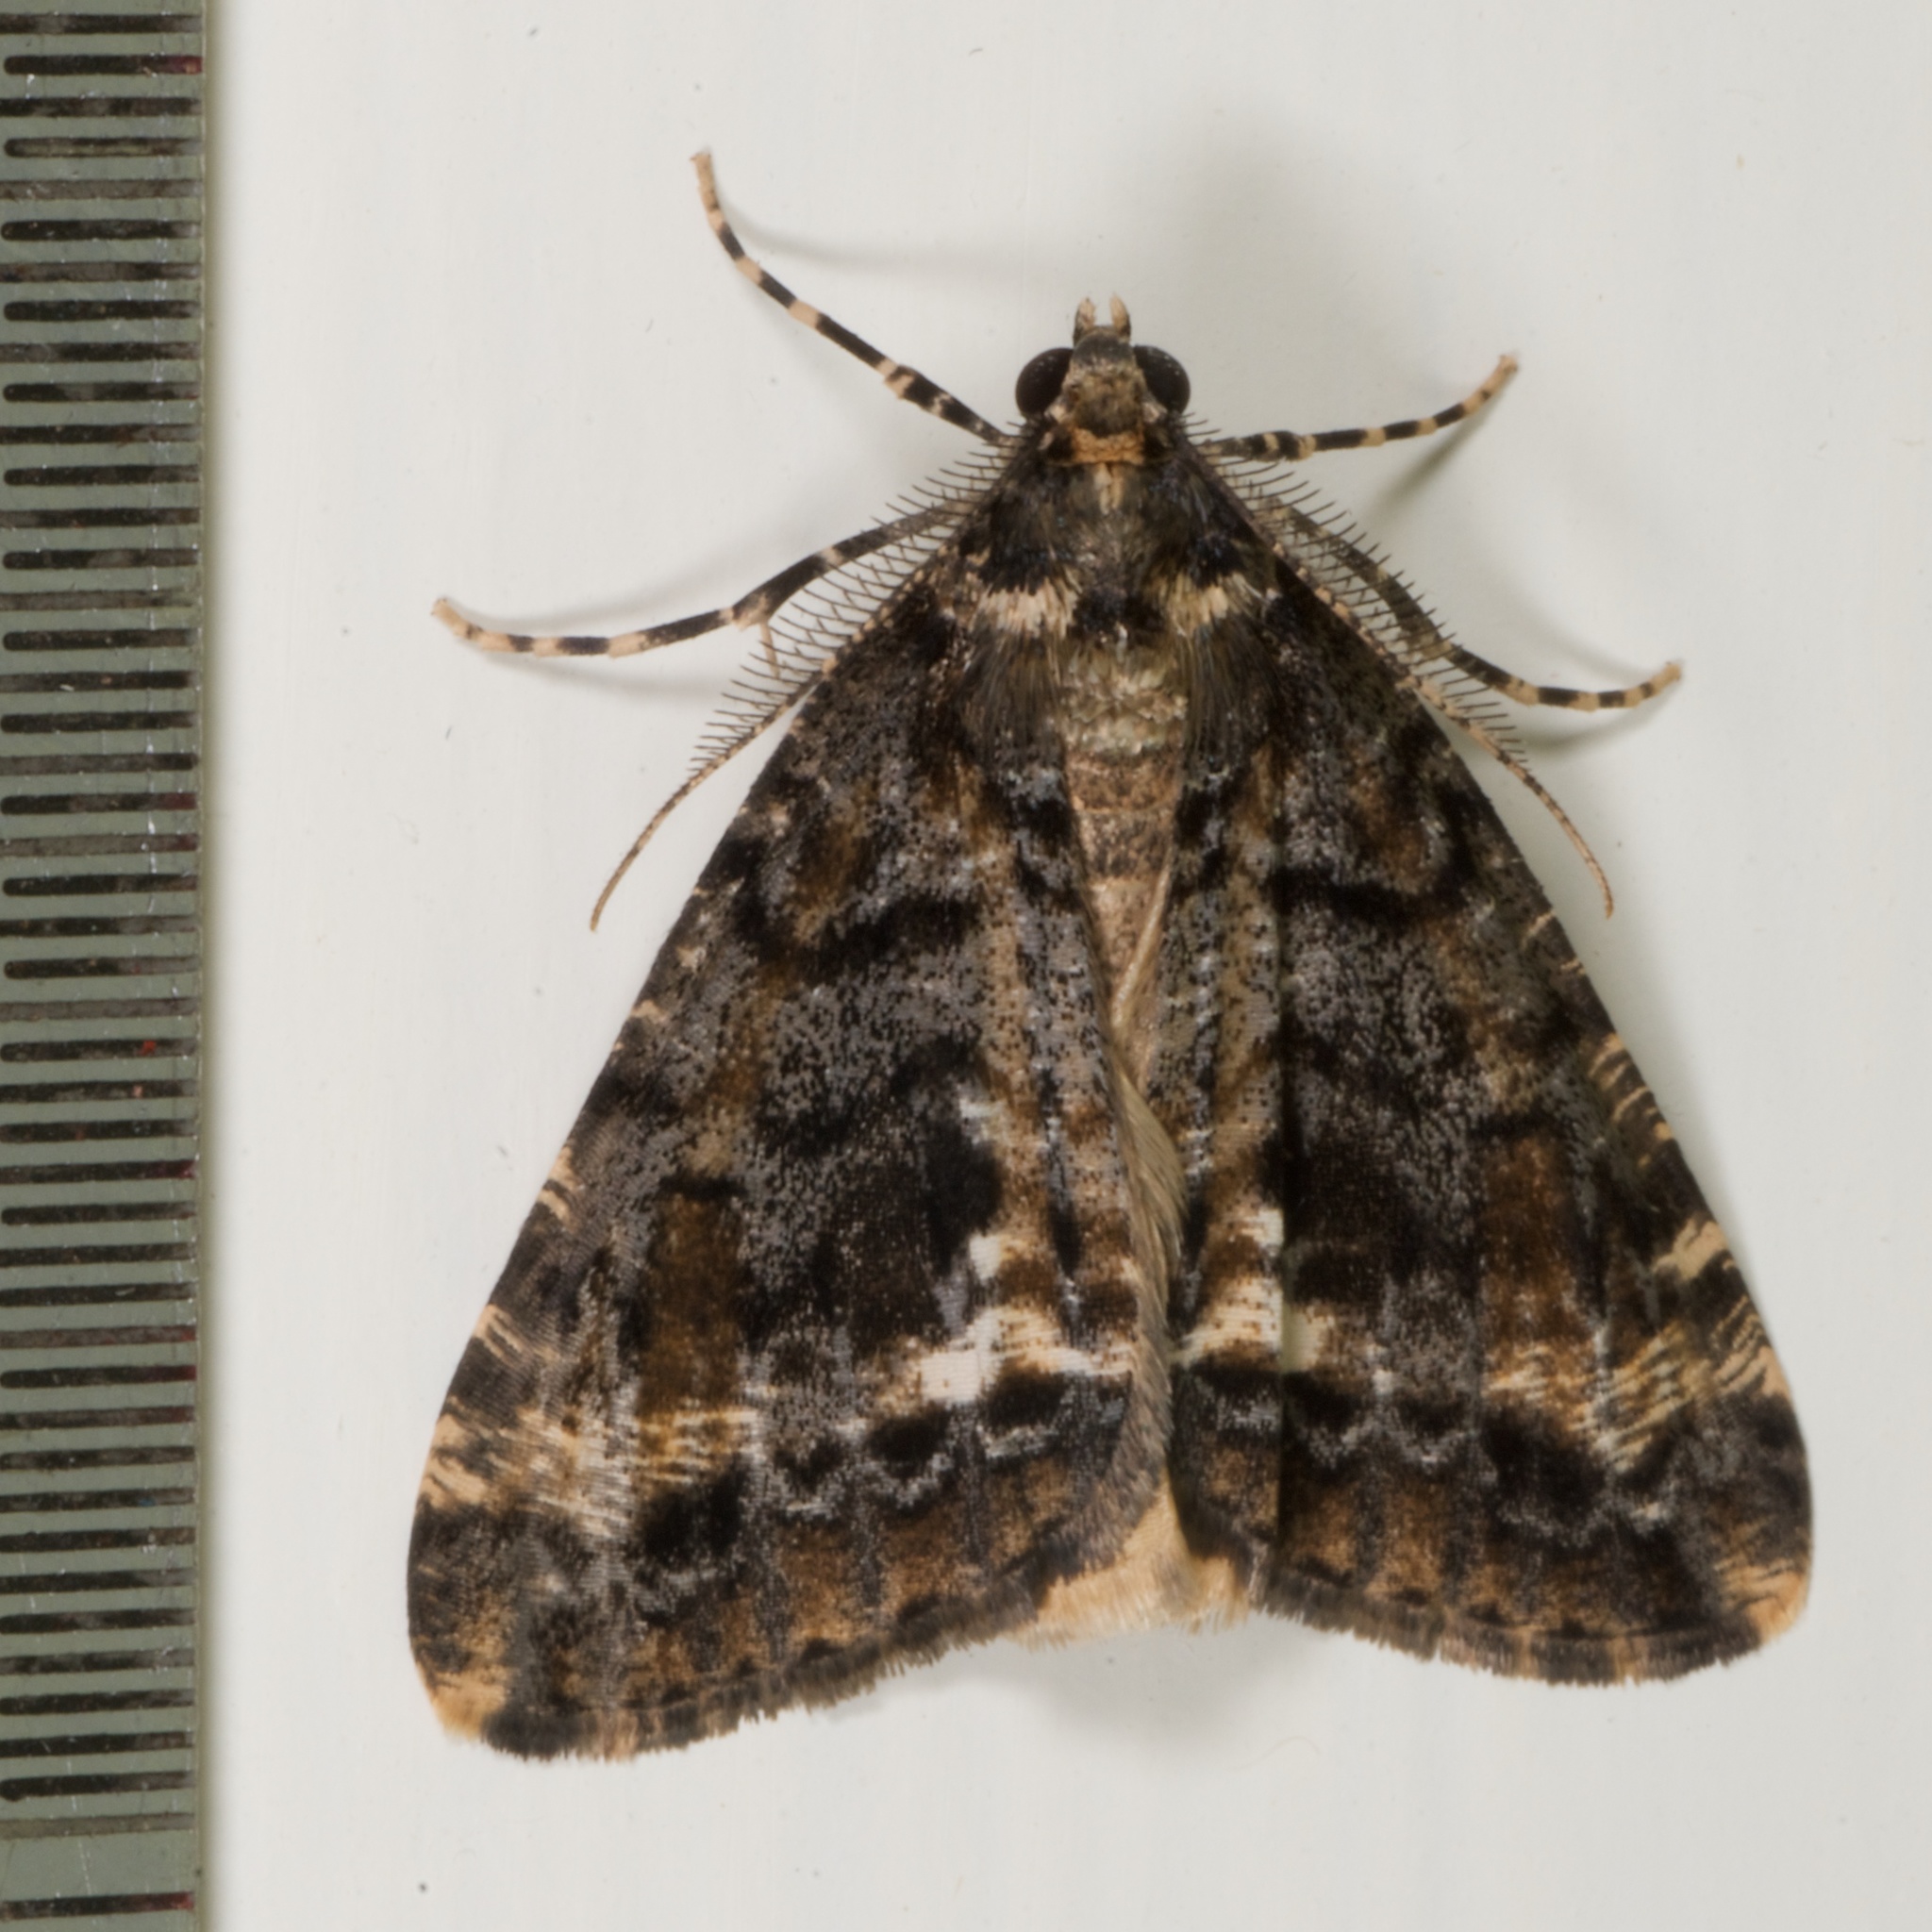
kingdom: Animalia
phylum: Arthropoda
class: Insecta
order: Lepidoptera
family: Geometridae
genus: Pseudocoremia
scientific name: Pseudocoremia leucelaea
